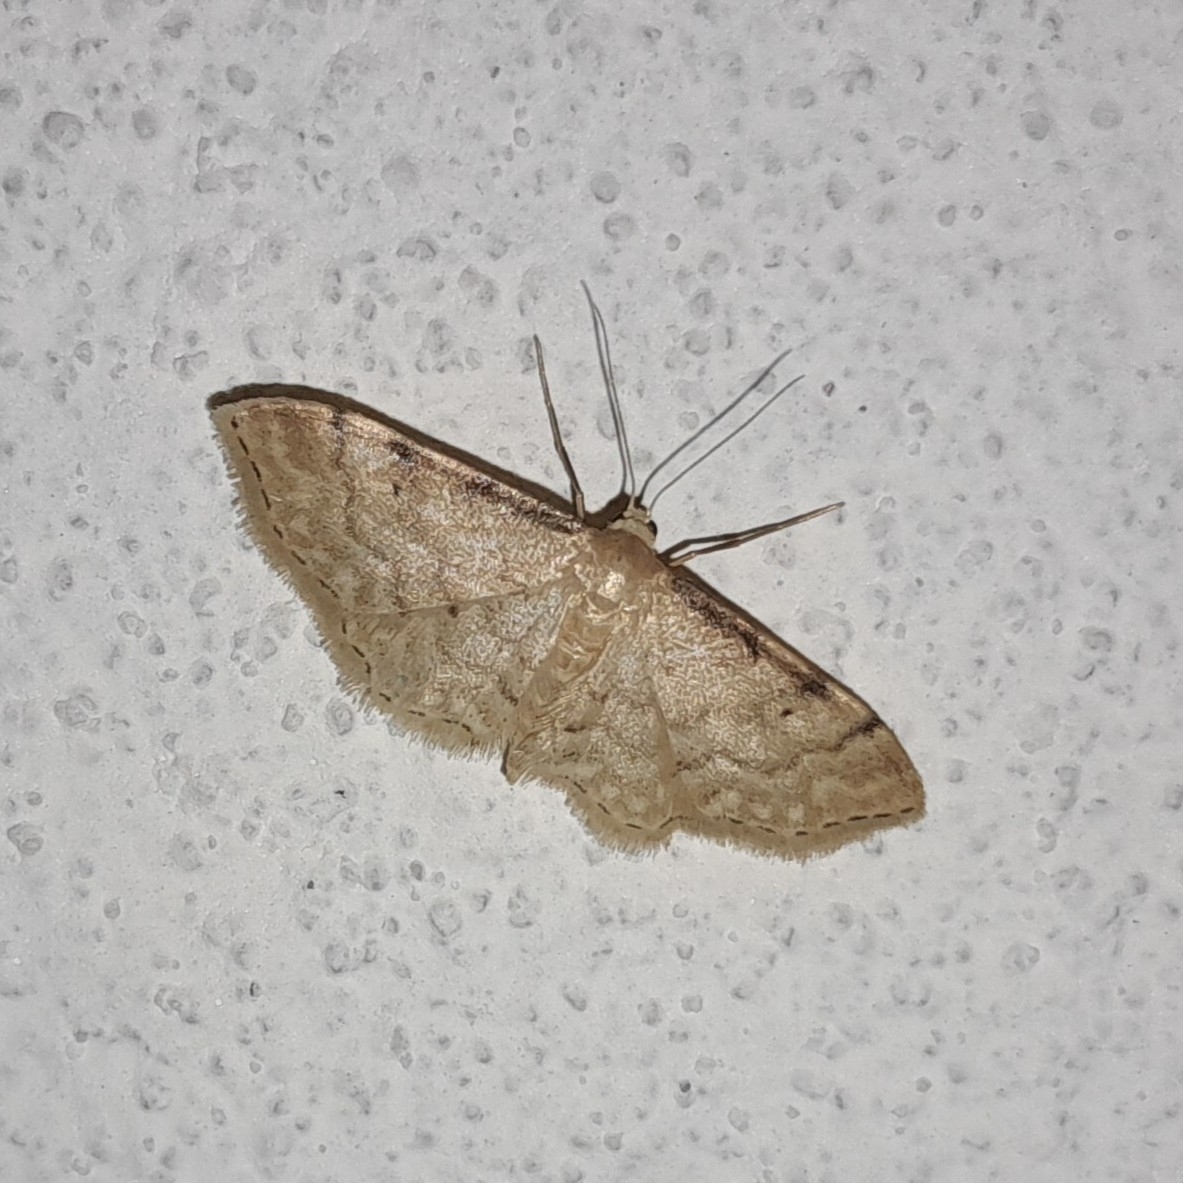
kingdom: Animalia
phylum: Arthropoda
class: Insecta
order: Lepidoptera
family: Geometridae
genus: Idaea
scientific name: Idaea fuscovenosa
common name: Dwarf cream wave
